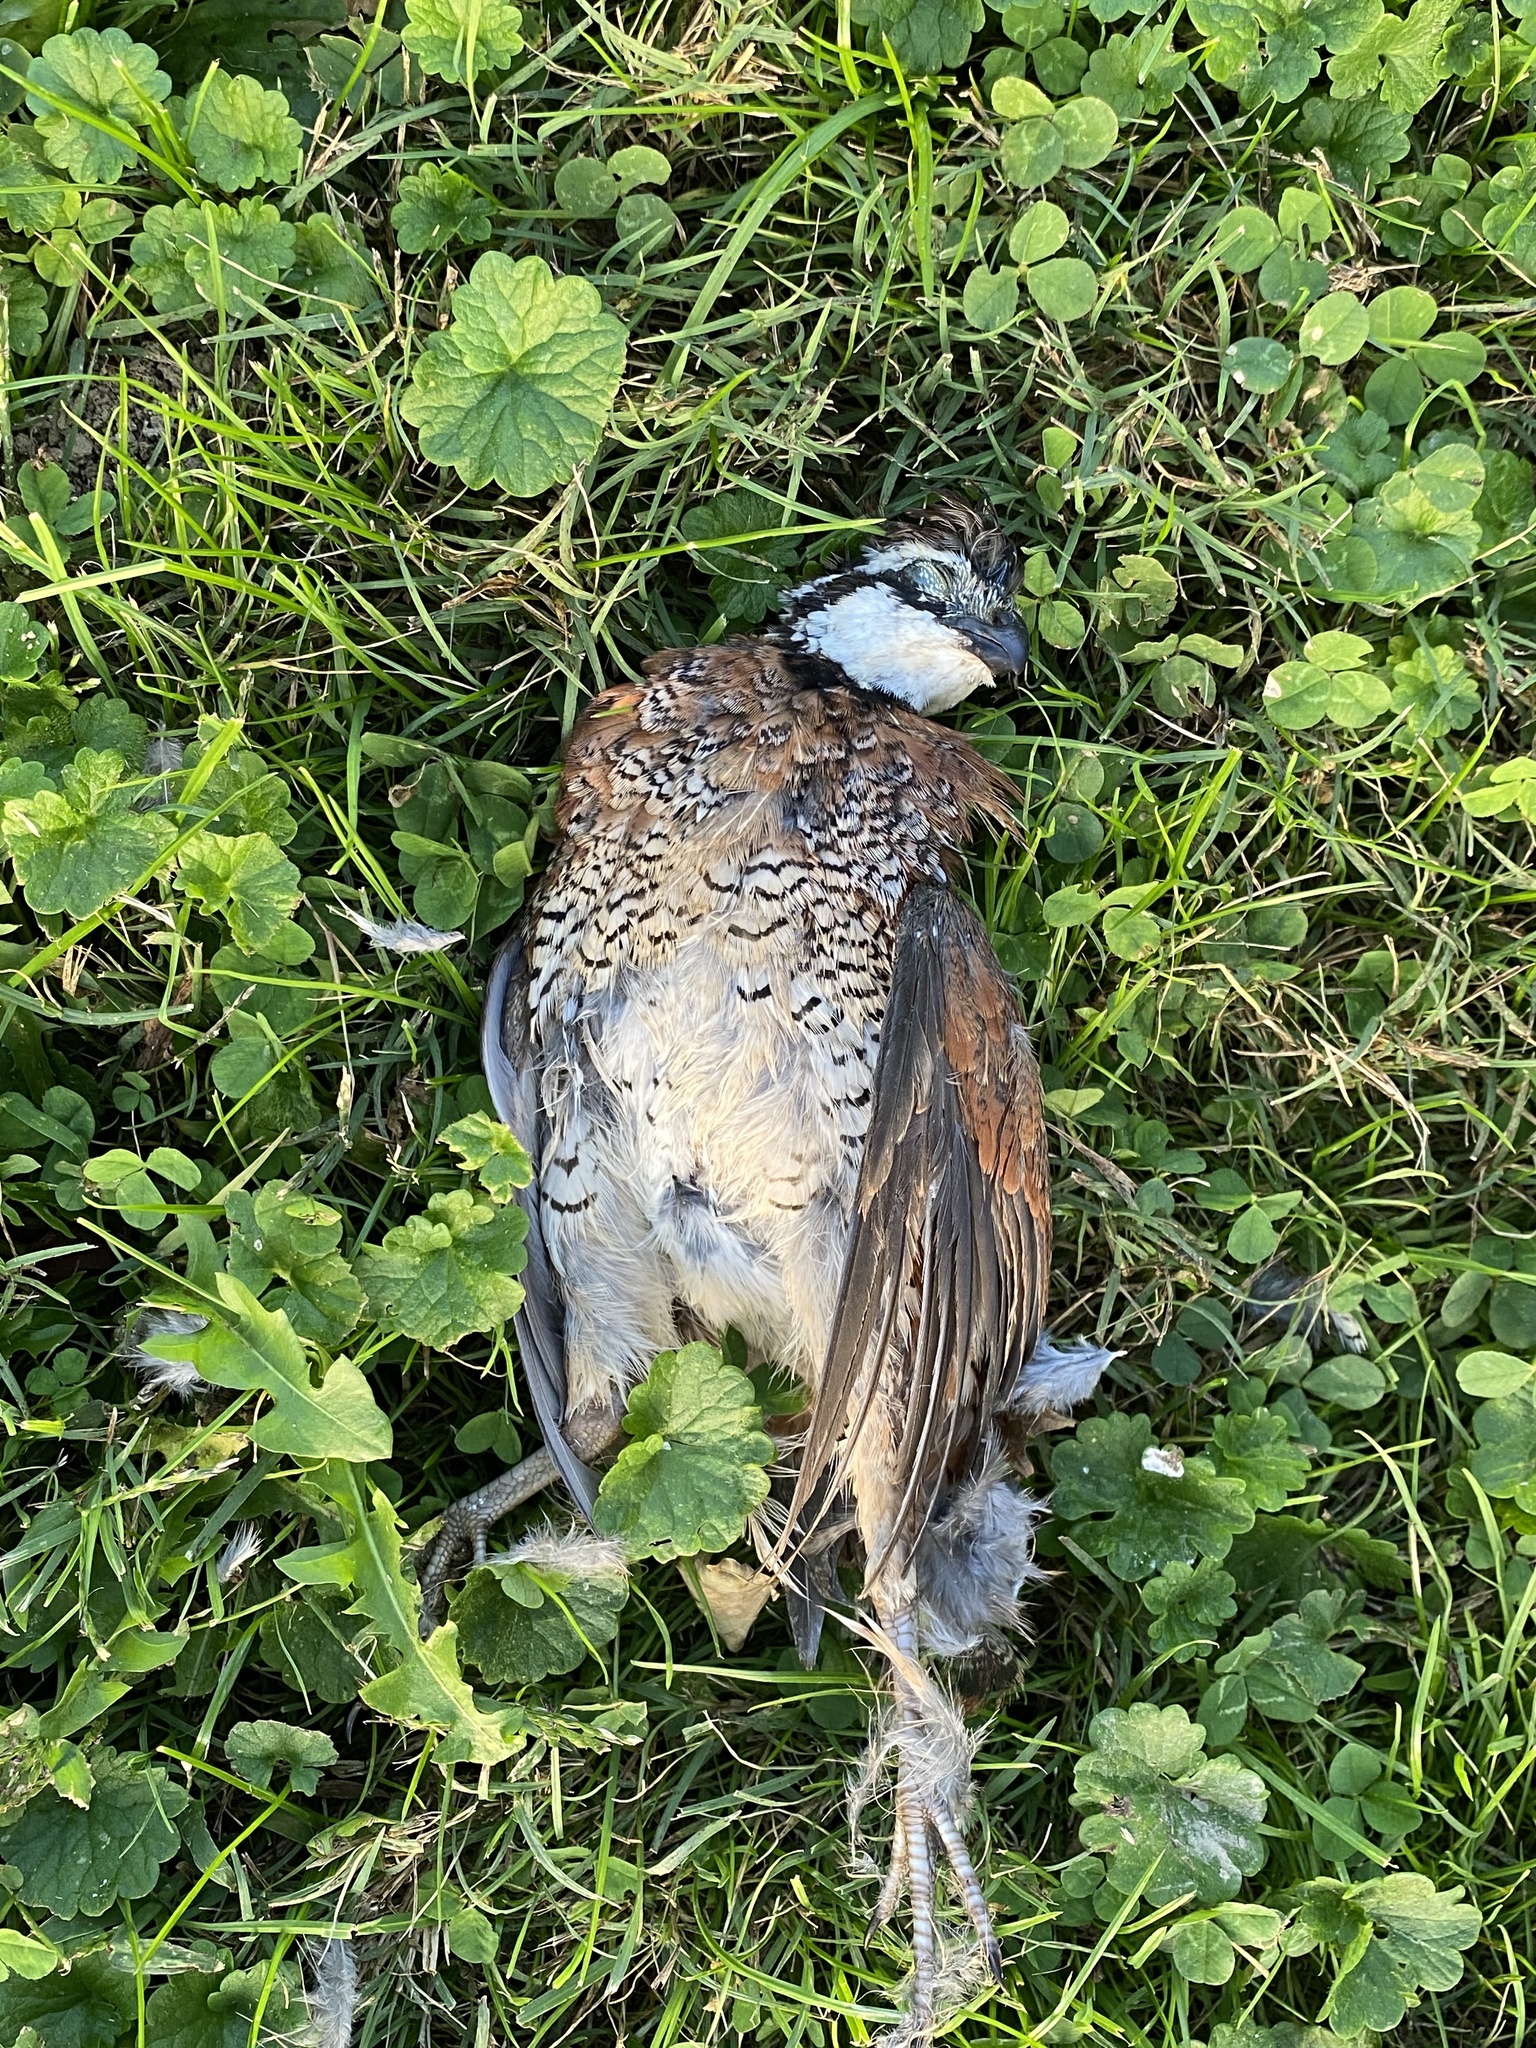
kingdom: Animalia
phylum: Chordata
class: Aves
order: Galliformes
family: Odontophoridae
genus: Colinus
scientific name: Colinus virginianus
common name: Northern bobwhite
